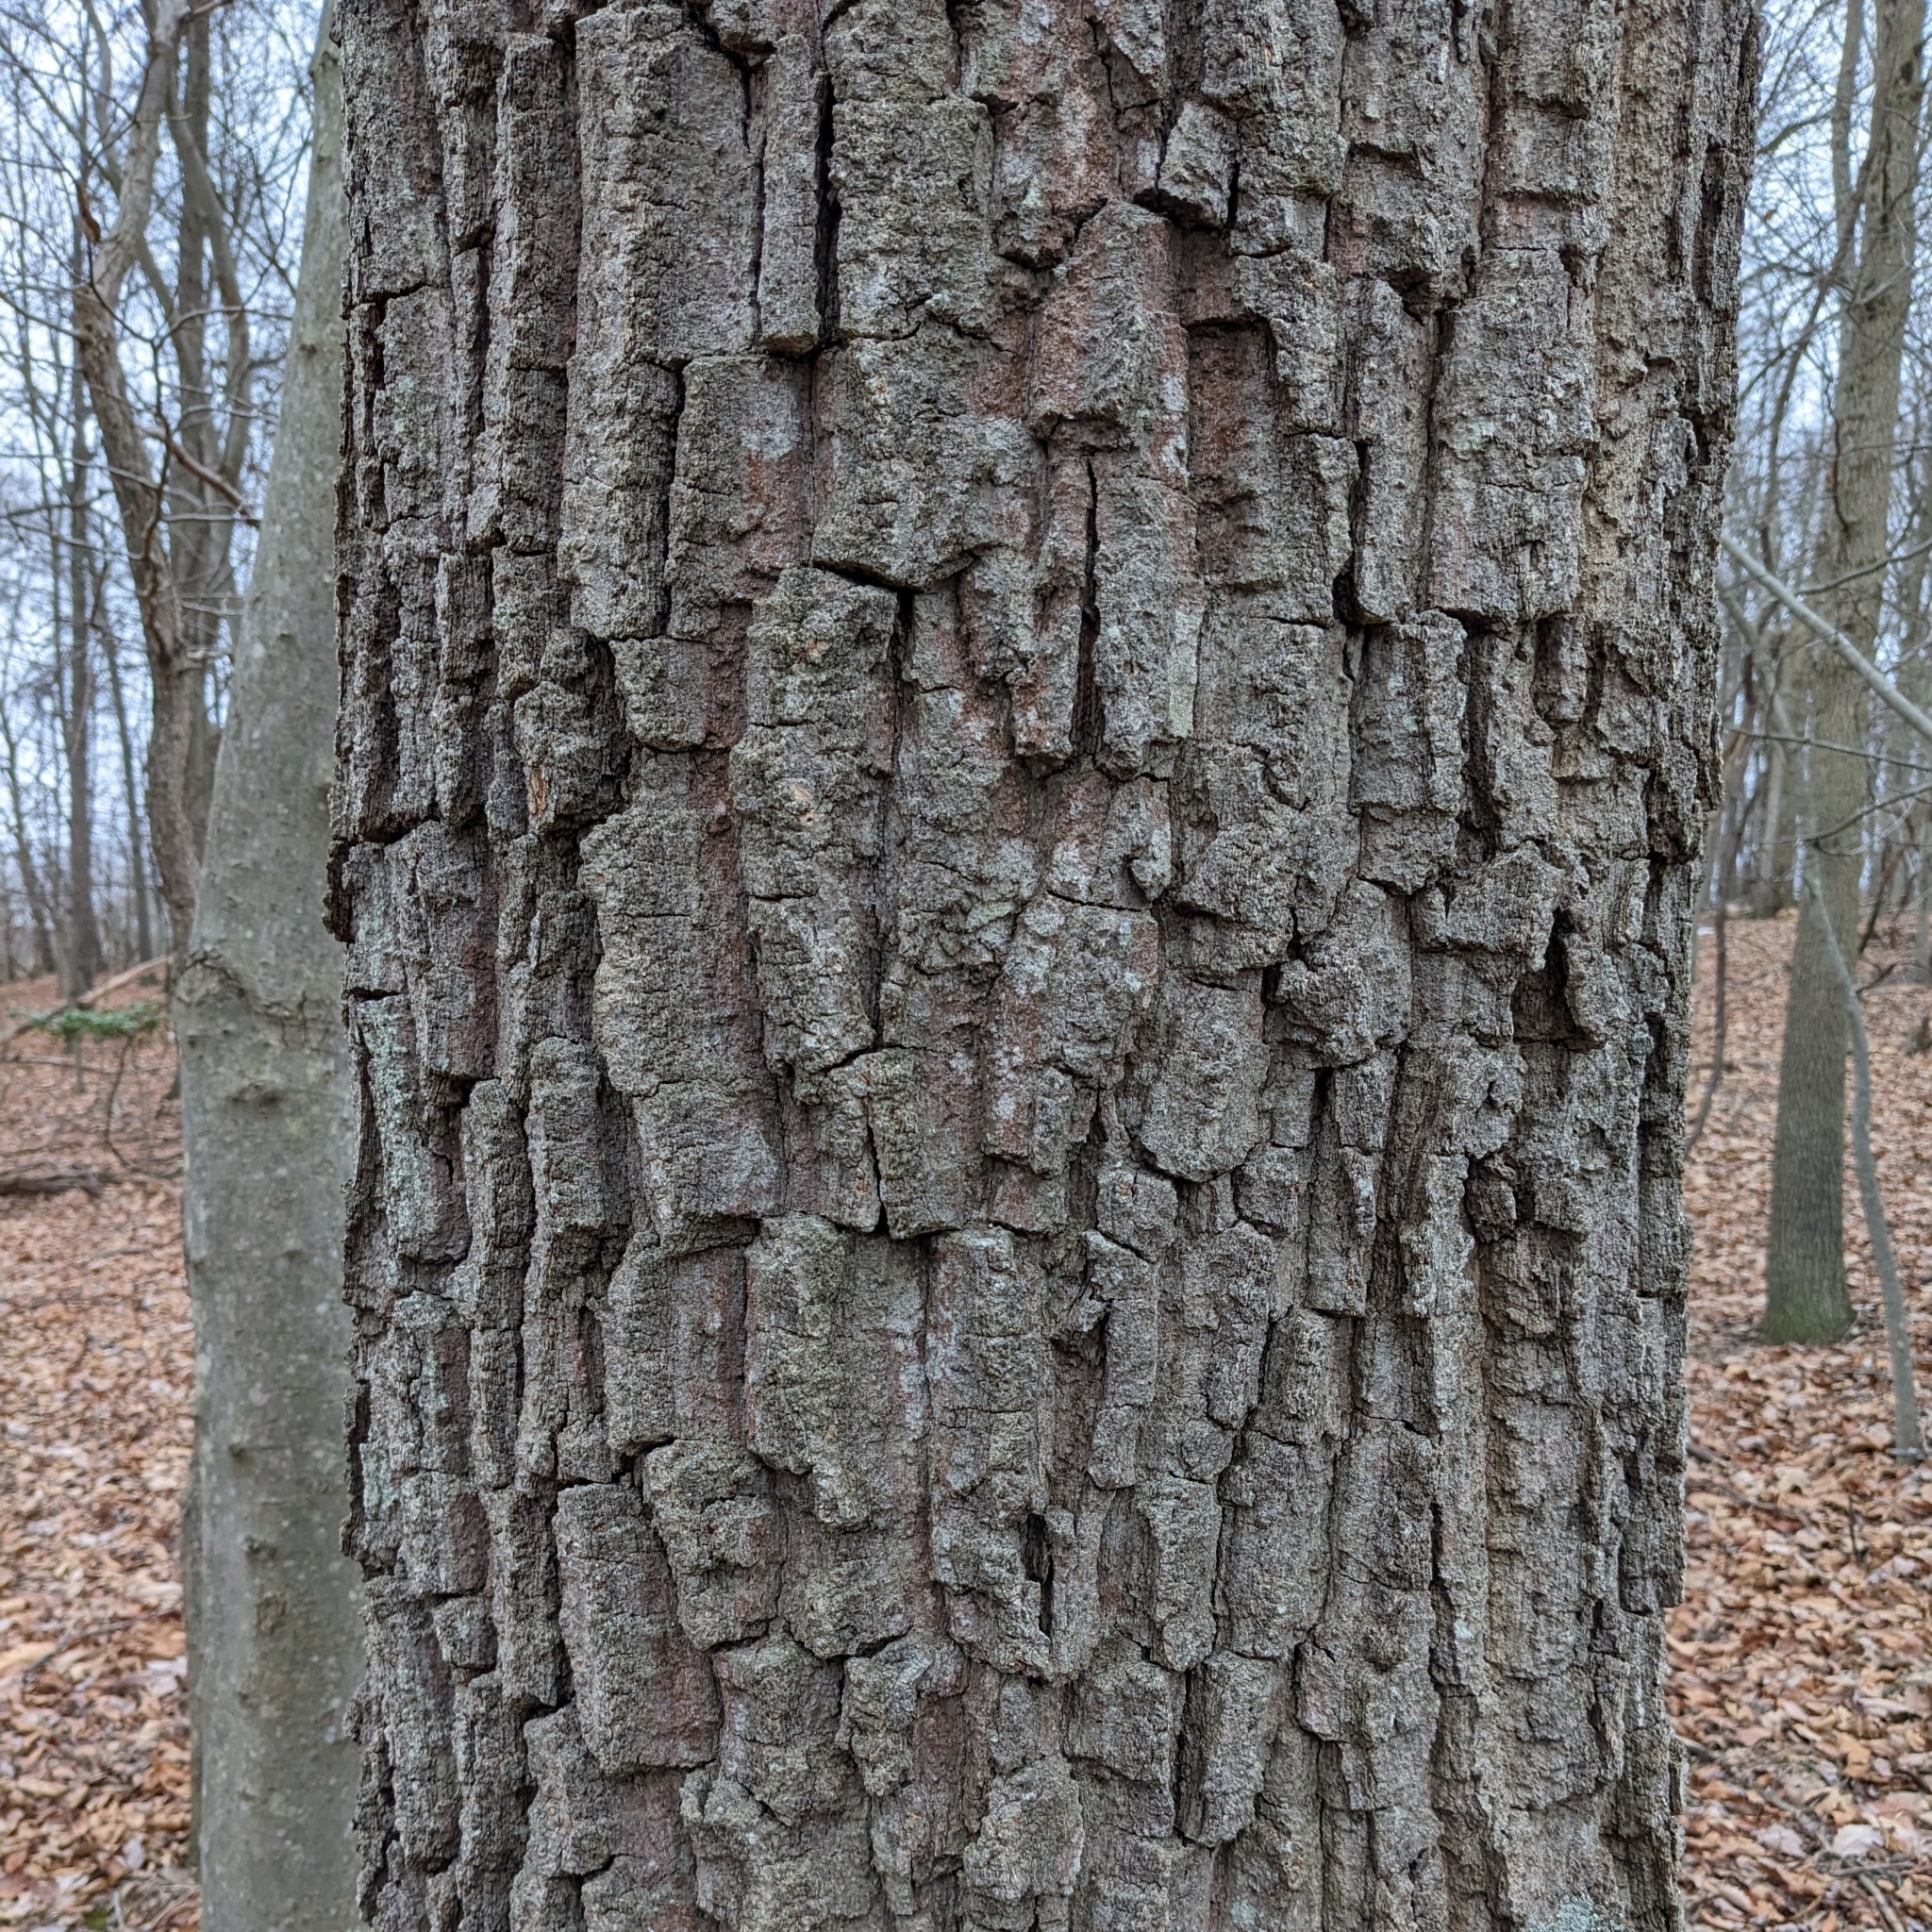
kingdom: Plantae
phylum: Tracheophyta
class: Magnoliopsida
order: Fagales
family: Fagaceae
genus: Quercus
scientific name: Quercus montana
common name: Chestnut oak
